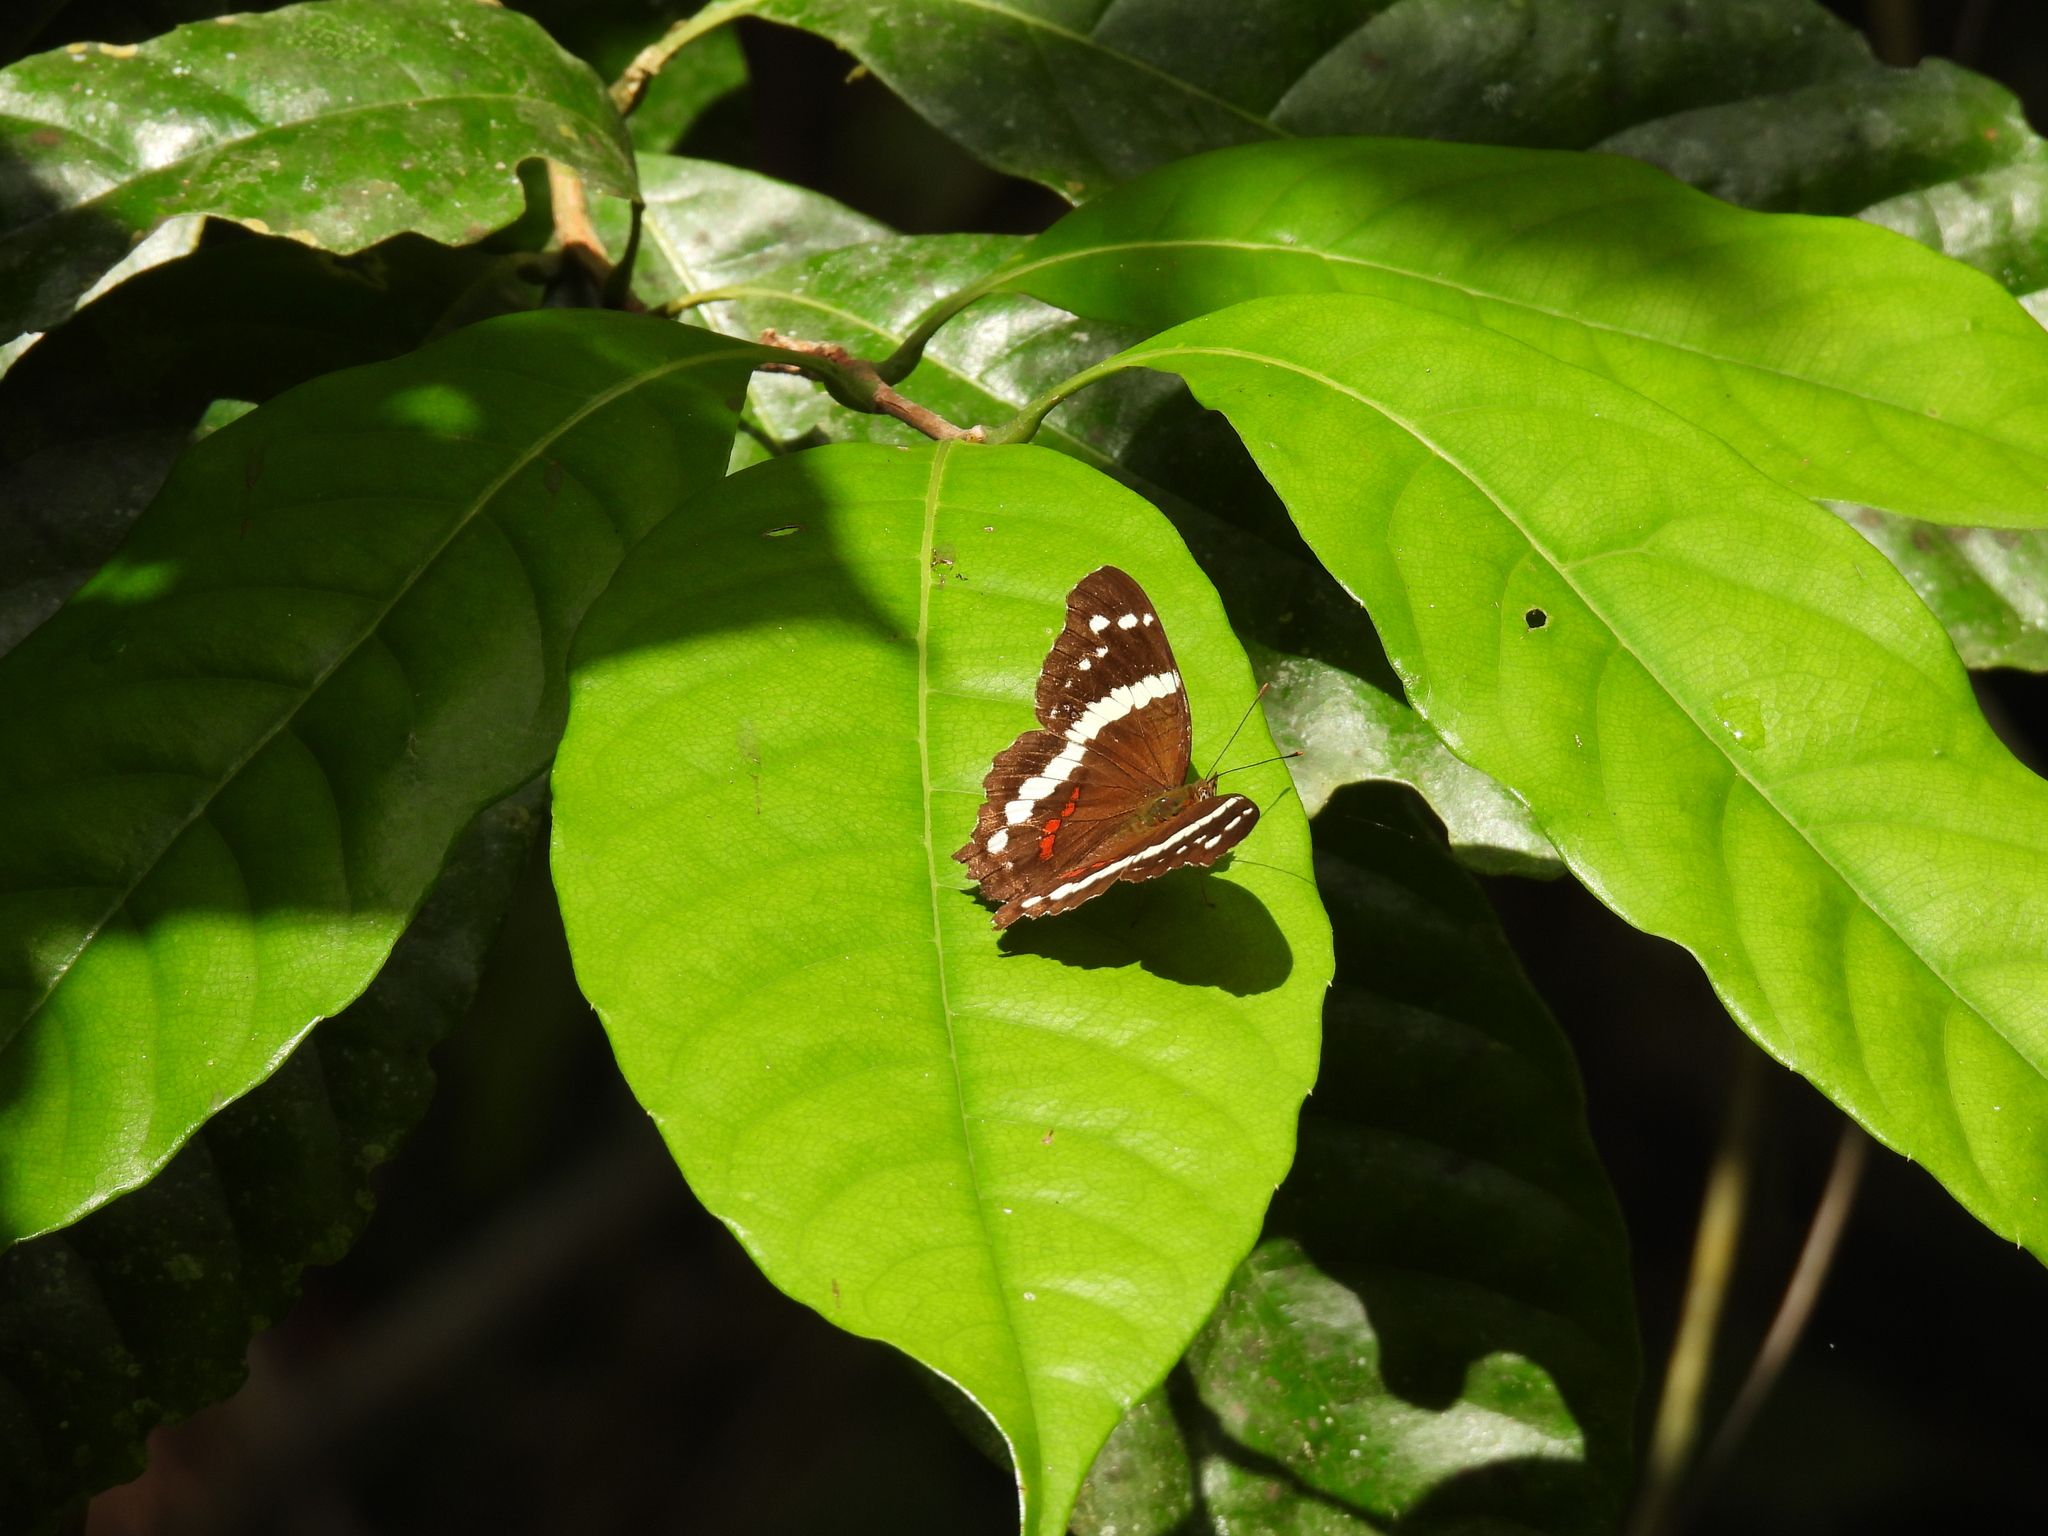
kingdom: Animalia
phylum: Arthropoda
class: Insecta
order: Lepidoptera
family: Nymphalidae
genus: Anartia
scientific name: Anartia fatima
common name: Banded peacock
